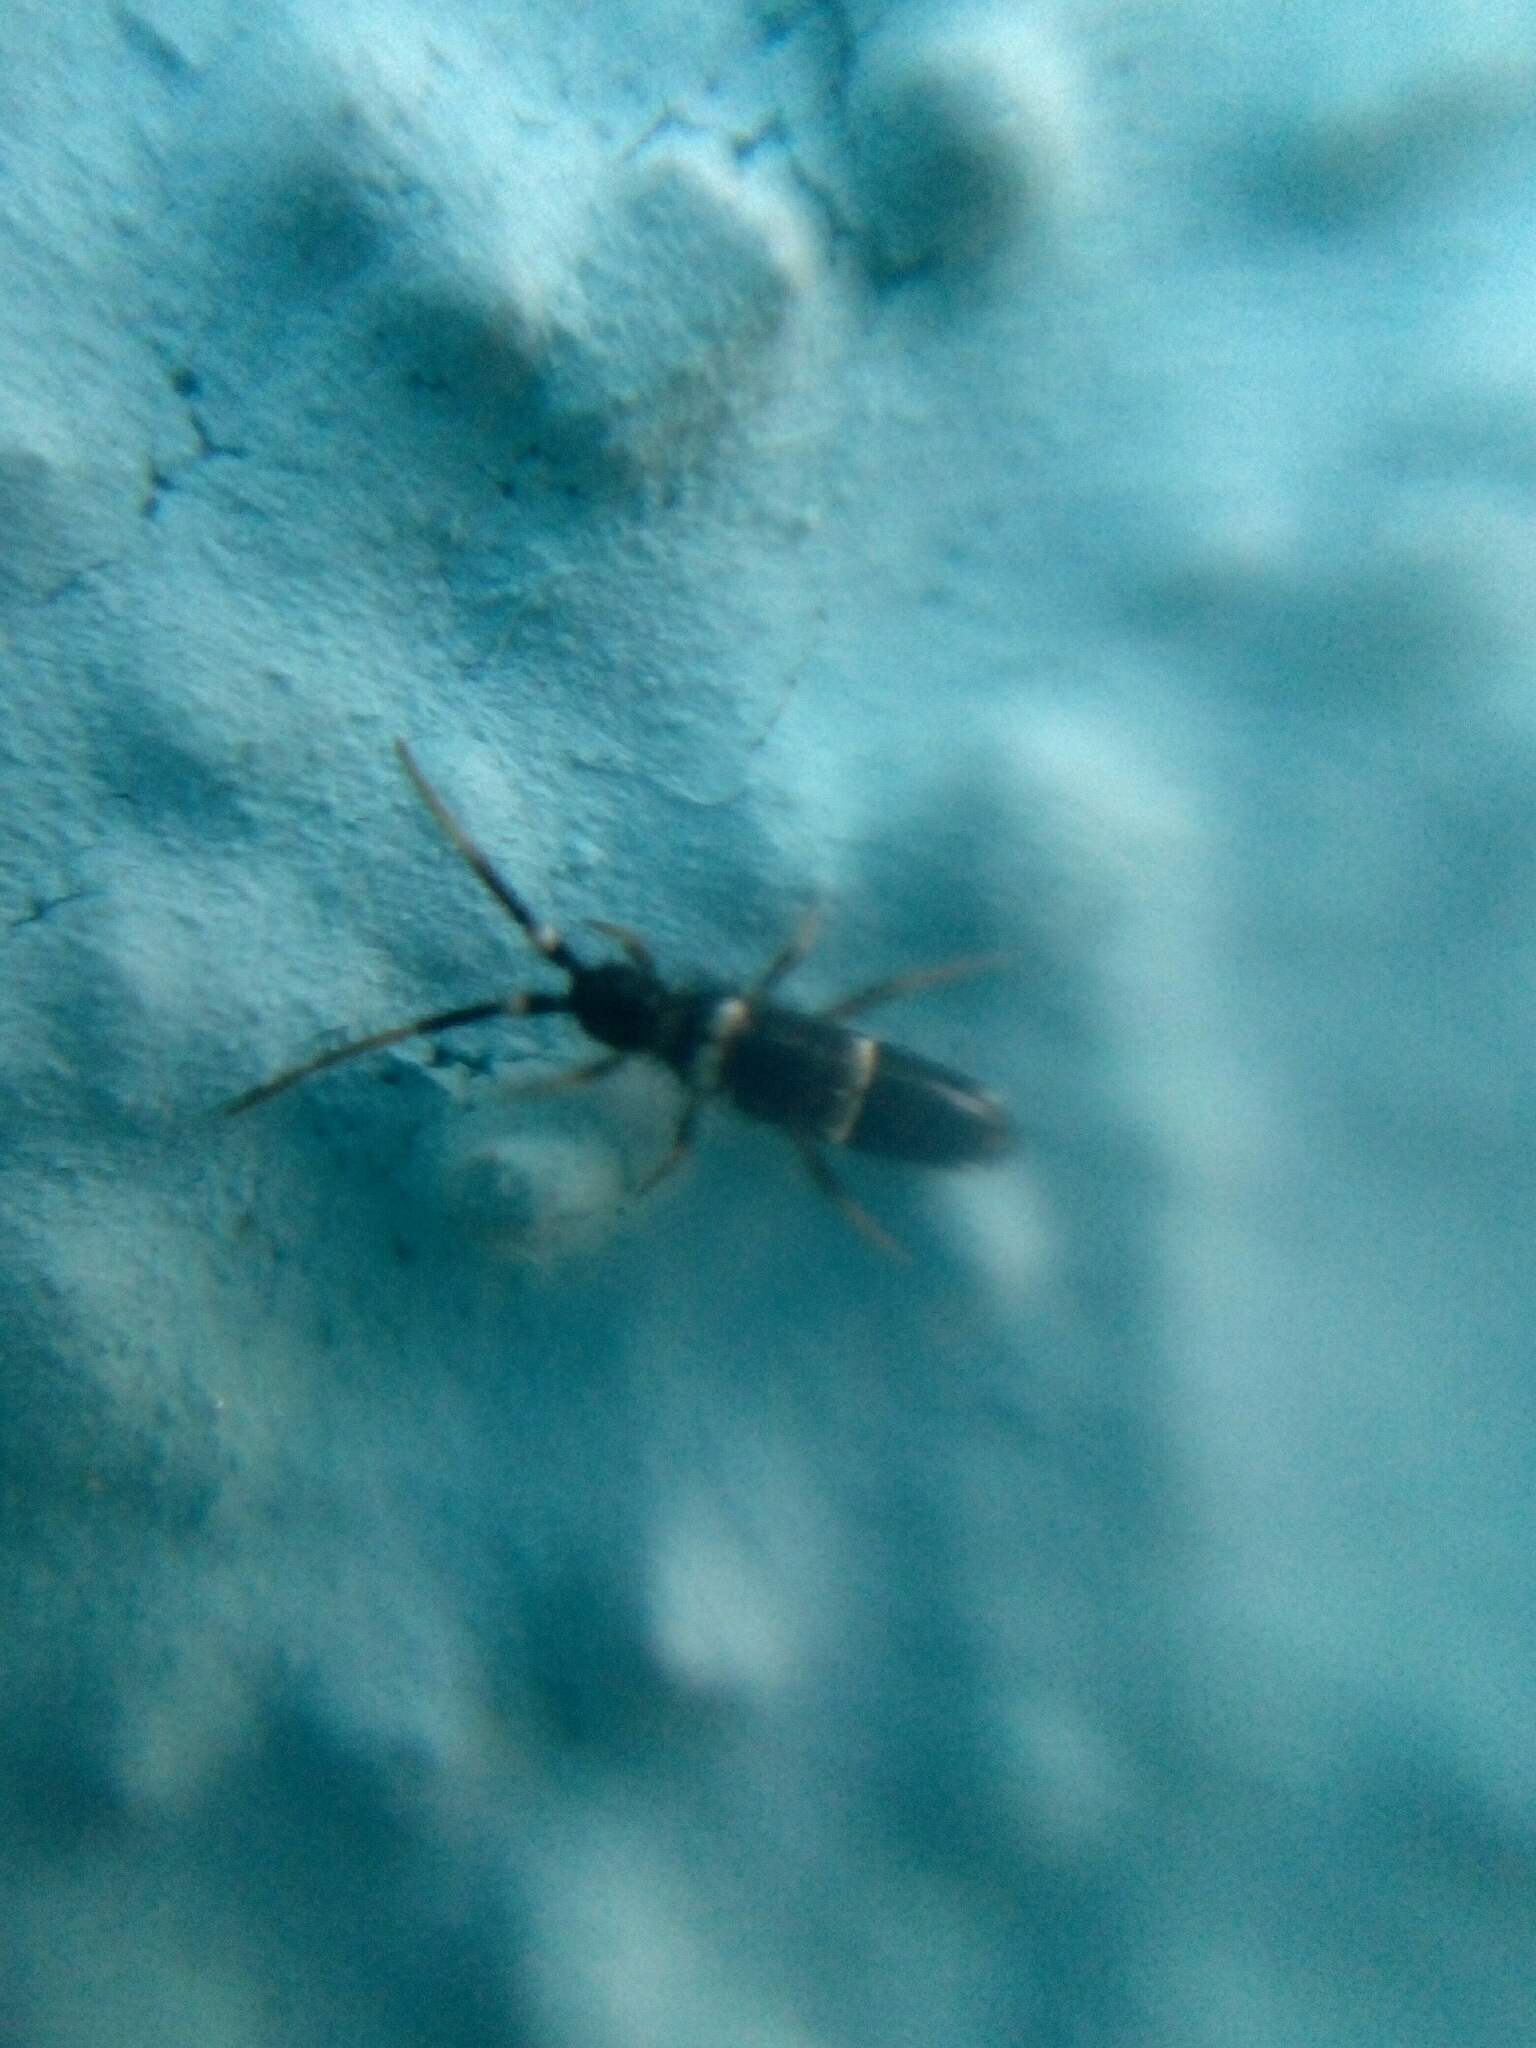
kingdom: Animalia
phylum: Arthropoda
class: Collembola
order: Entomobryomorpha
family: Orchesellidae
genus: Orchesella
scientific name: Orchesella cincta
